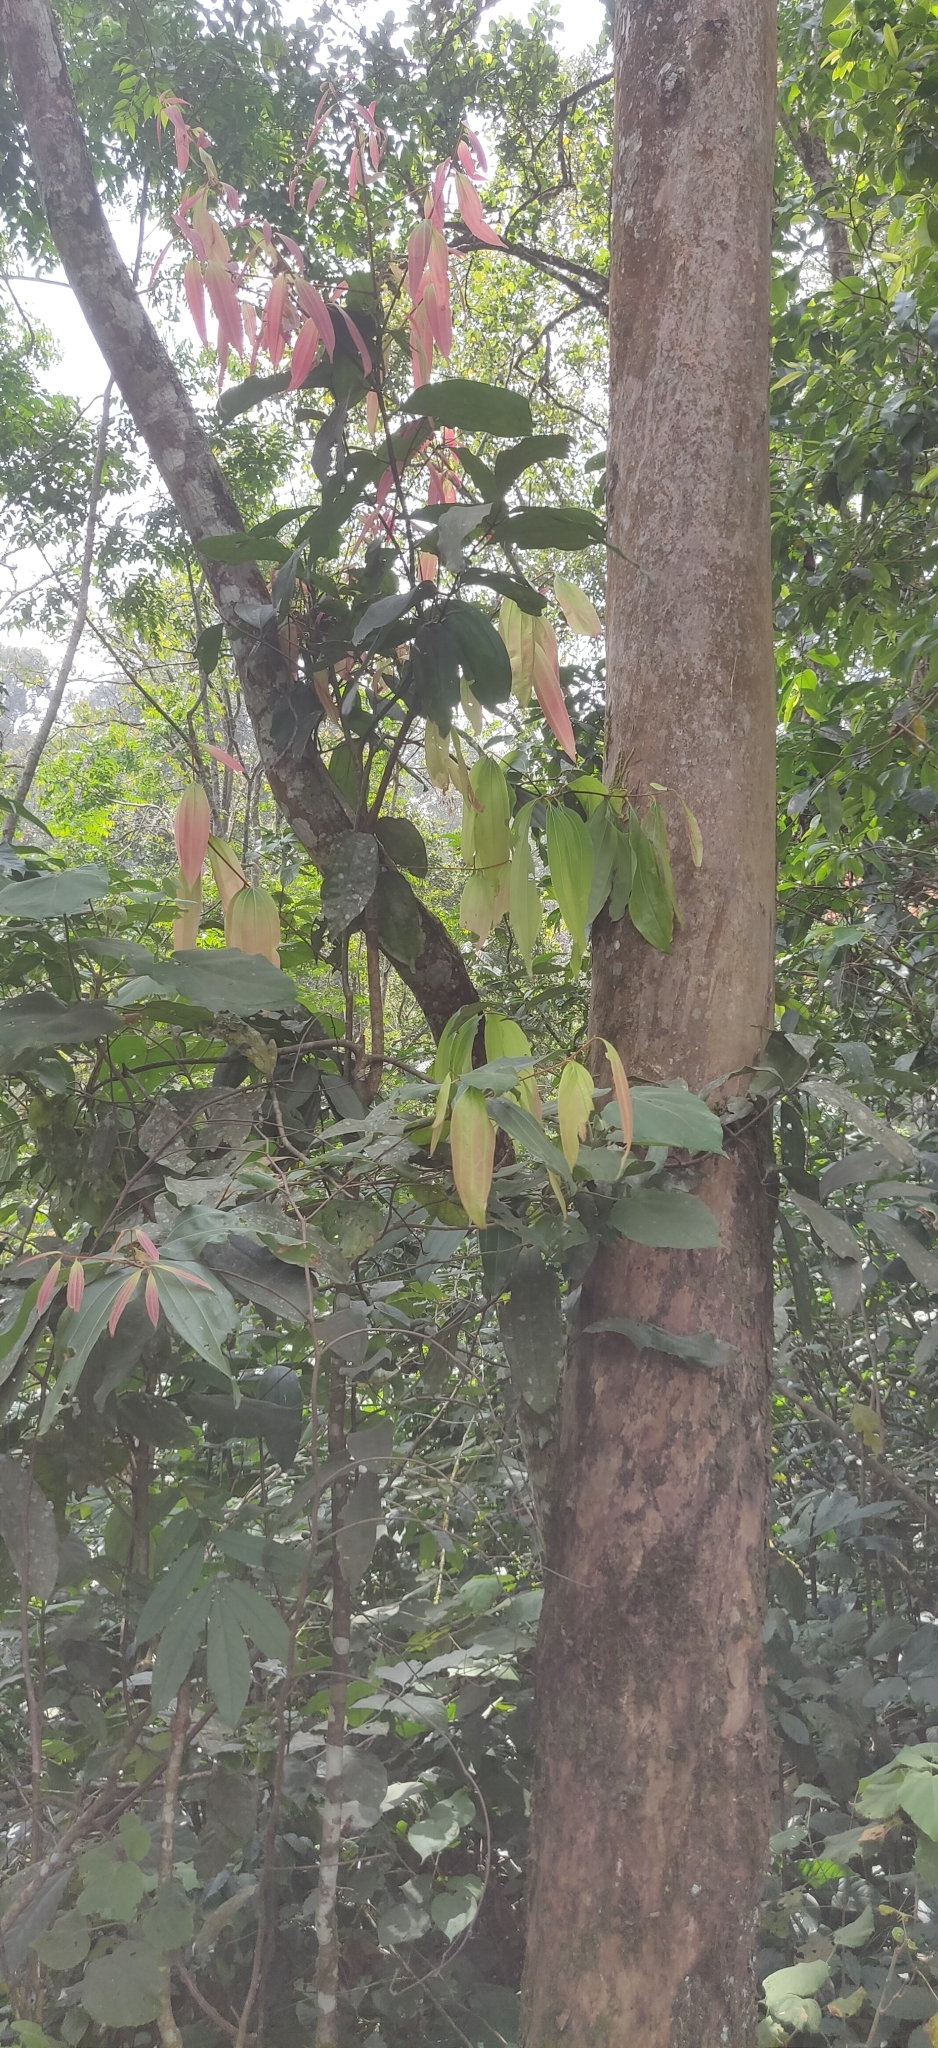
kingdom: Plantae
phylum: Tracheophyta
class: Magnoliopsida
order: Laurales
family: Lauraceae
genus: Cinnamomum
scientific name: Cinnamomum malabatrum
